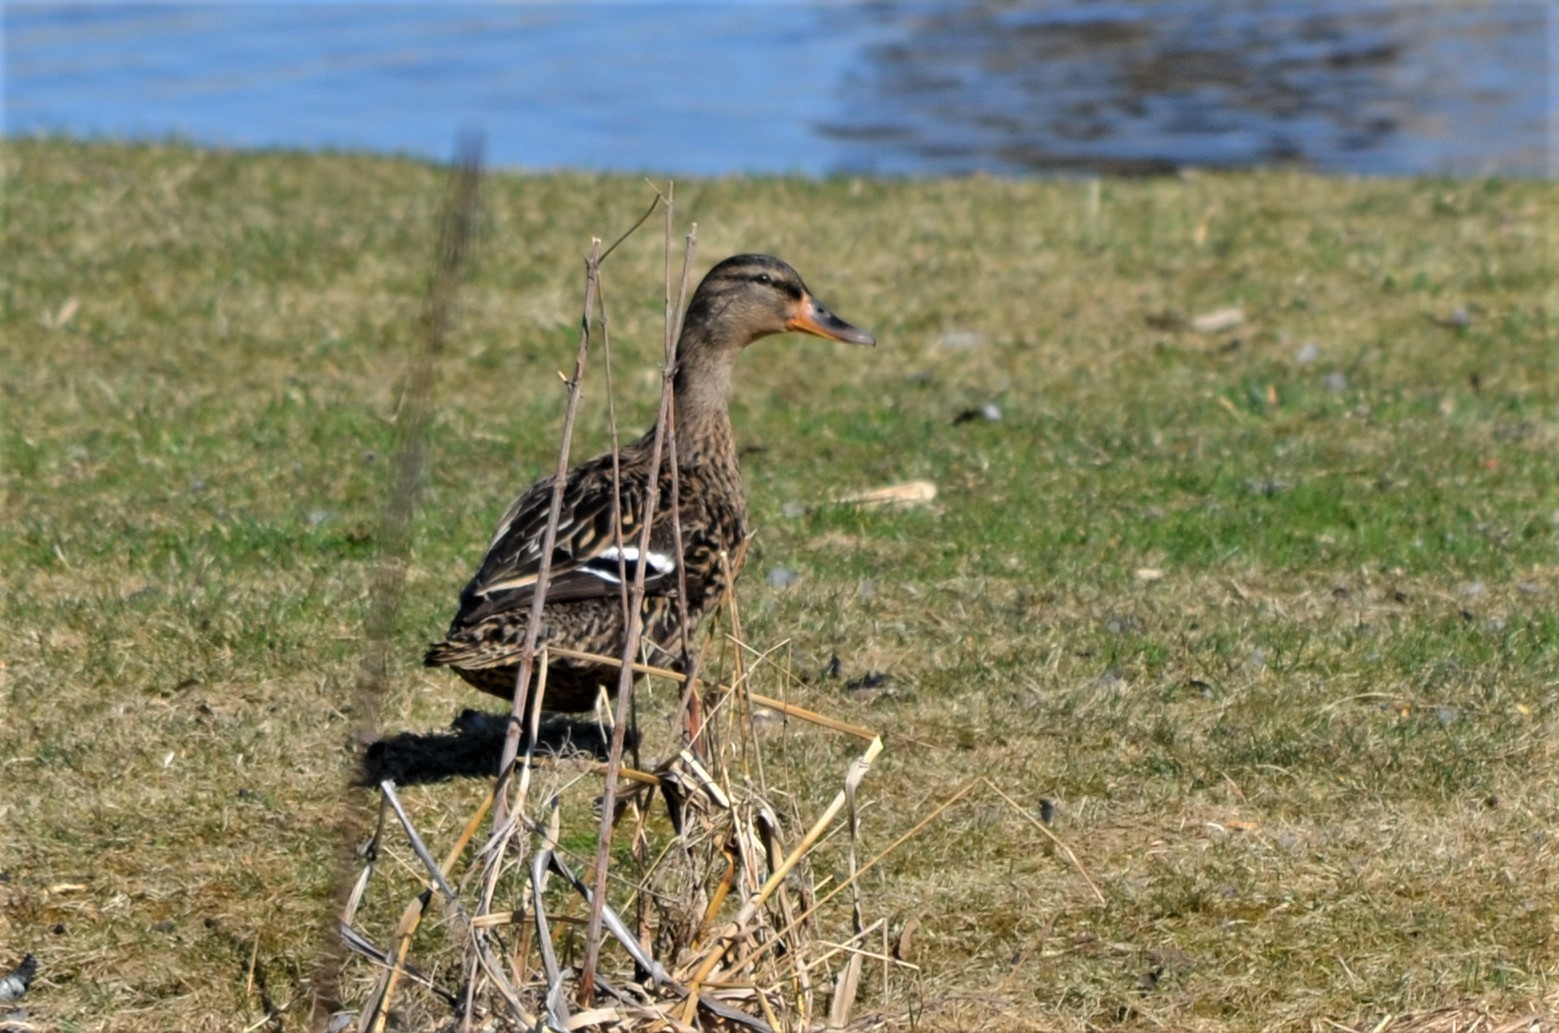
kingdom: Animalia
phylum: Chordata
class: Aves
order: Anseriformes
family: Anatidae
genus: Anas
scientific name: Anas platyrhynchos
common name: Mallard
